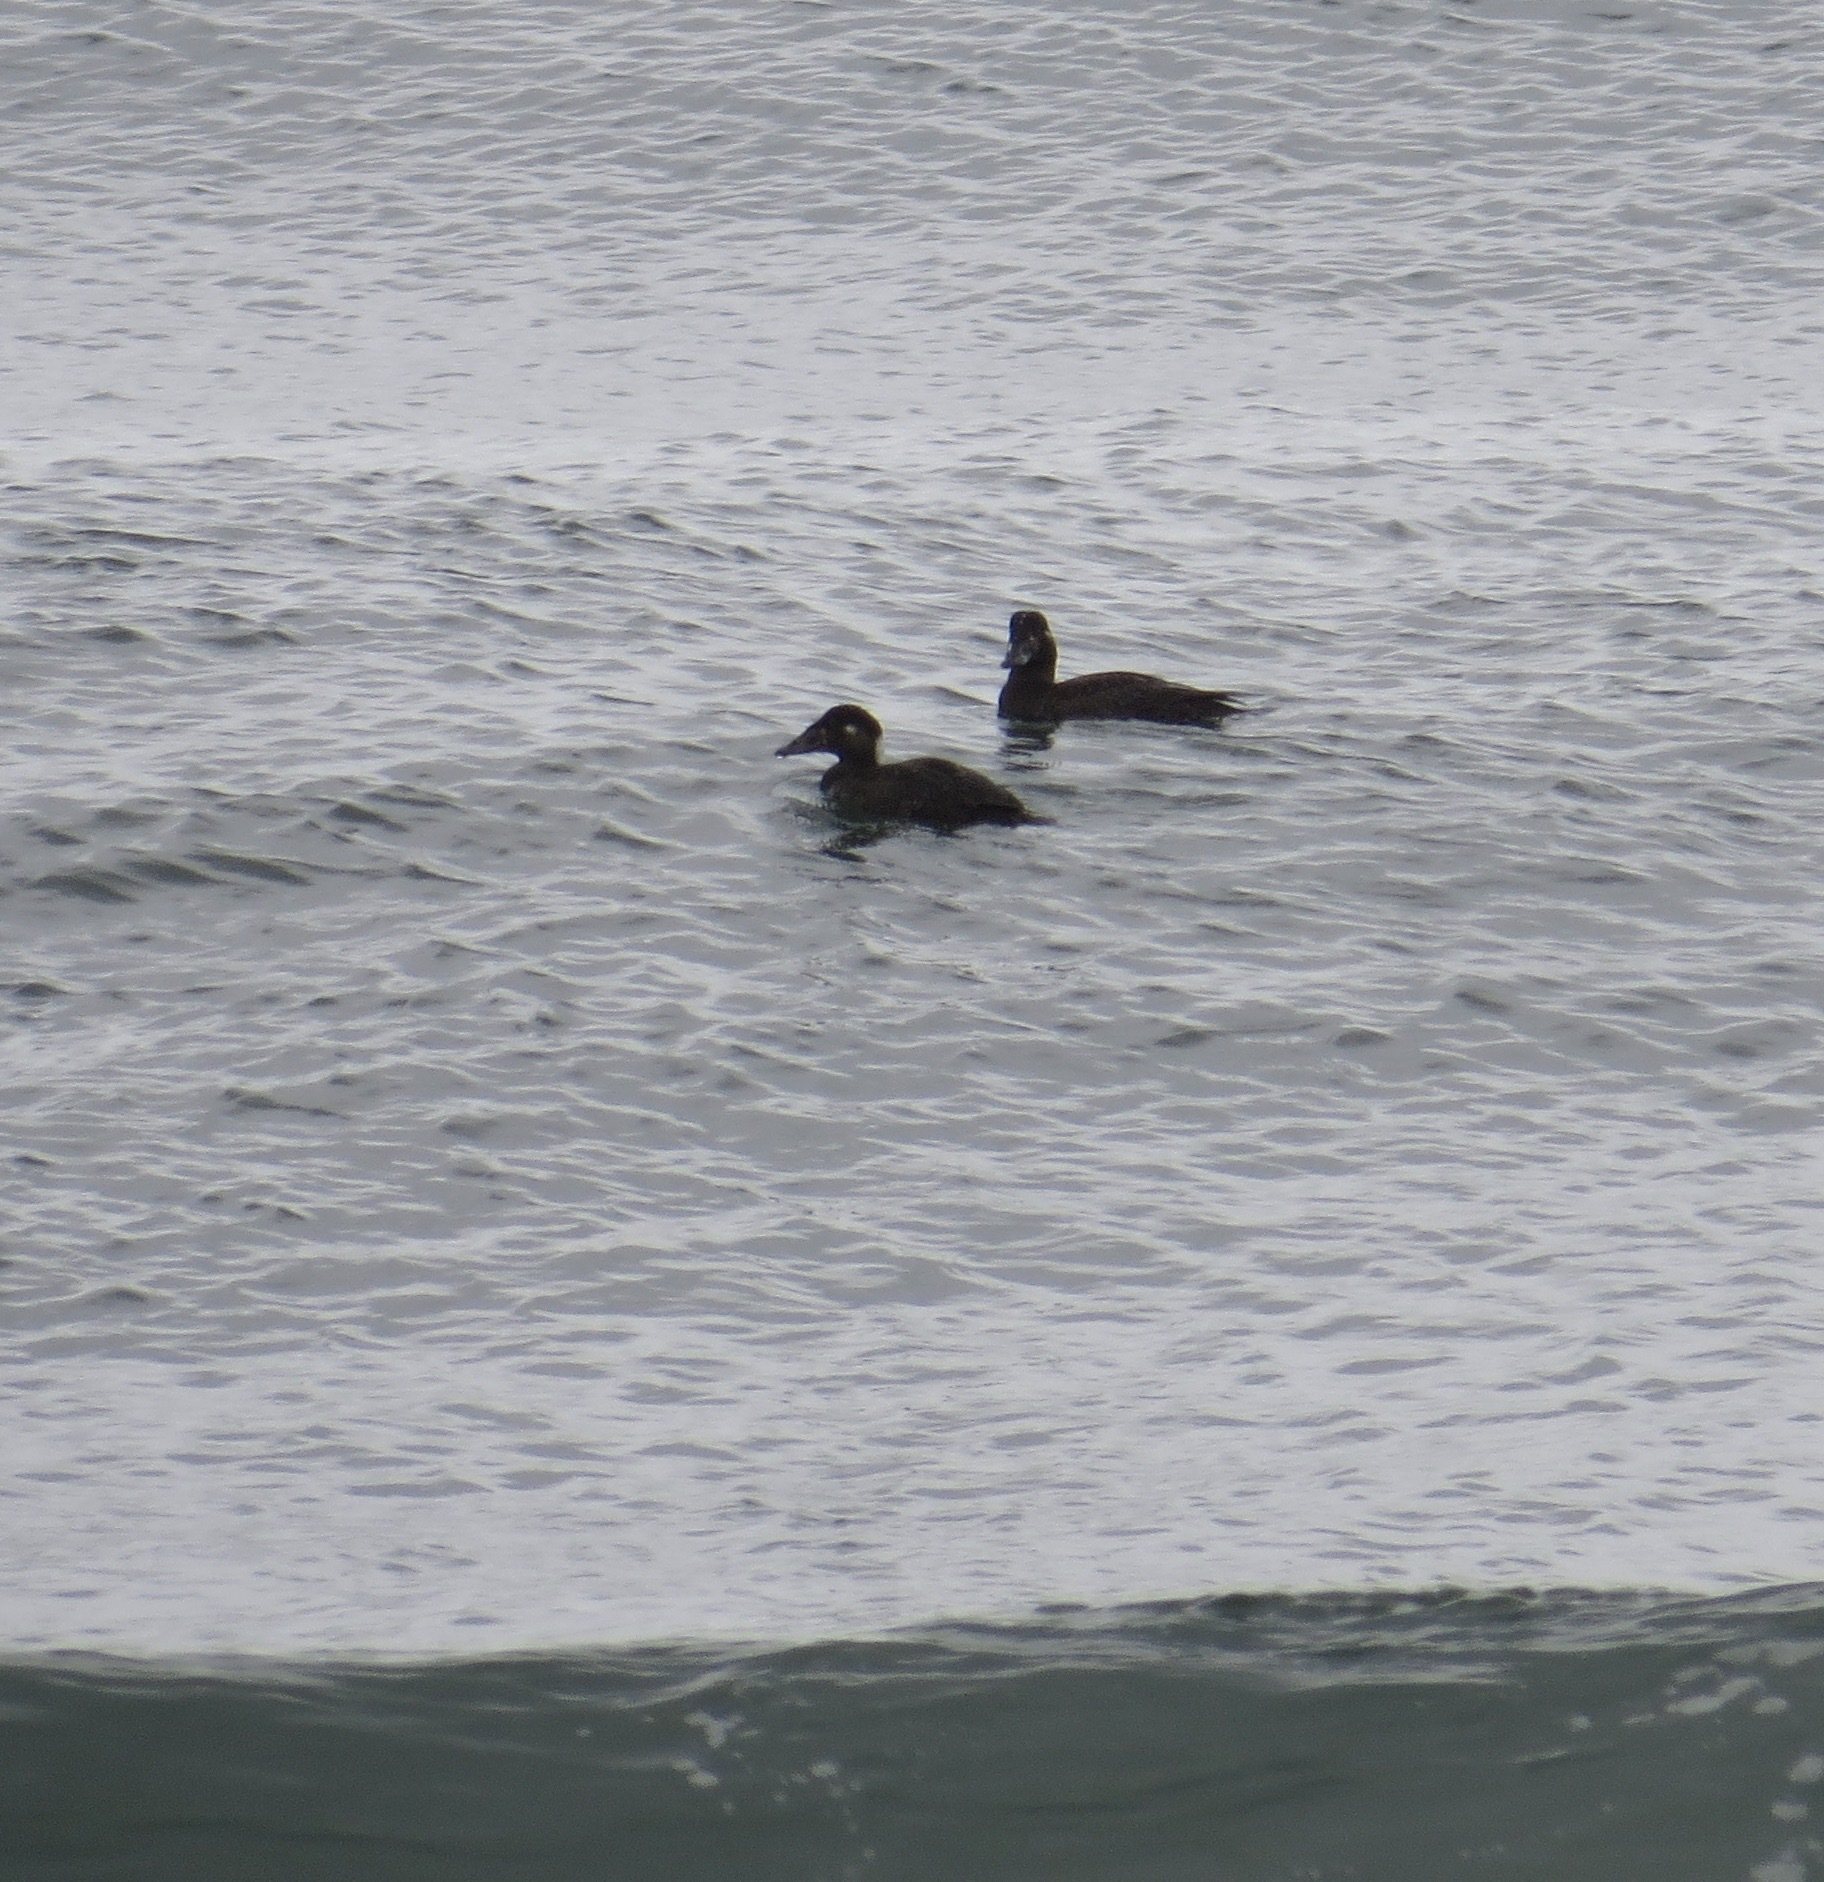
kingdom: Animalia
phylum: Chordata
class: Aves
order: Anseriformes
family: Anatidae
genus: Melanitta
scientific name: Melanitta perspicillata
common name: Surf scoter
